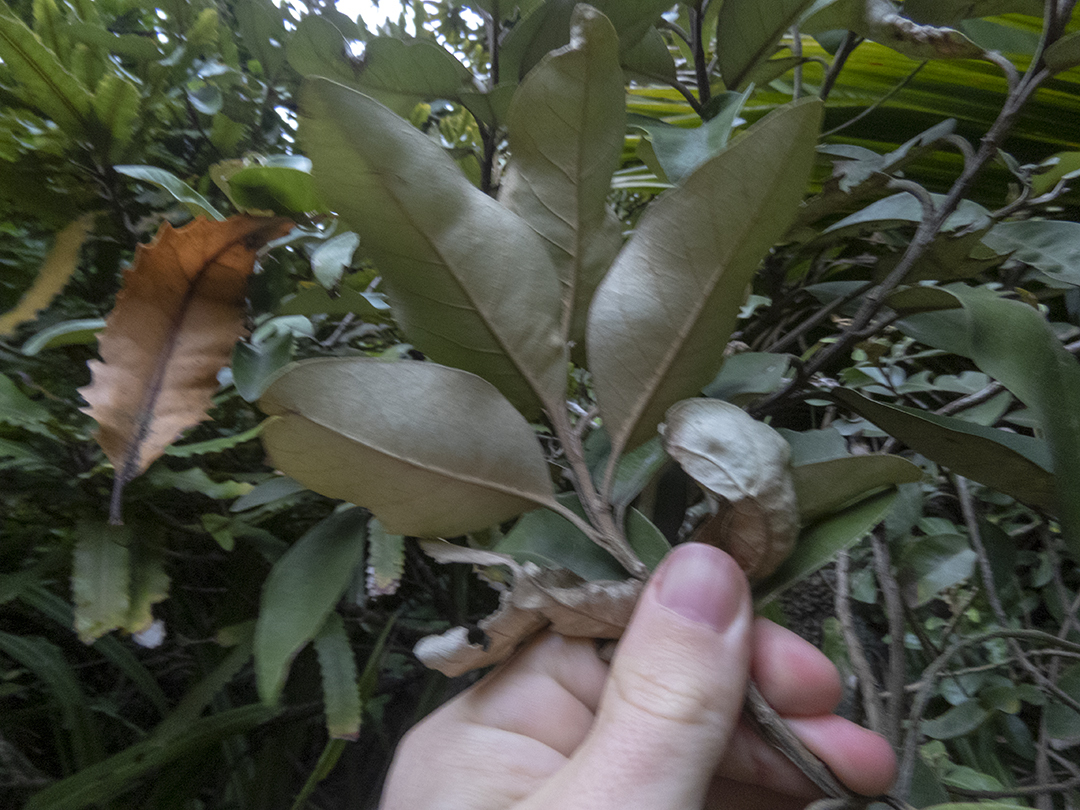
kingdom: Plantae
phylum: Tracheophyta
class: Magnoliopsida
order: Asterales
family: Asteraceae
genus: Olearia
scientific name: Olearia avicenniifolia
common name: Mangrove-leaf daisybush
